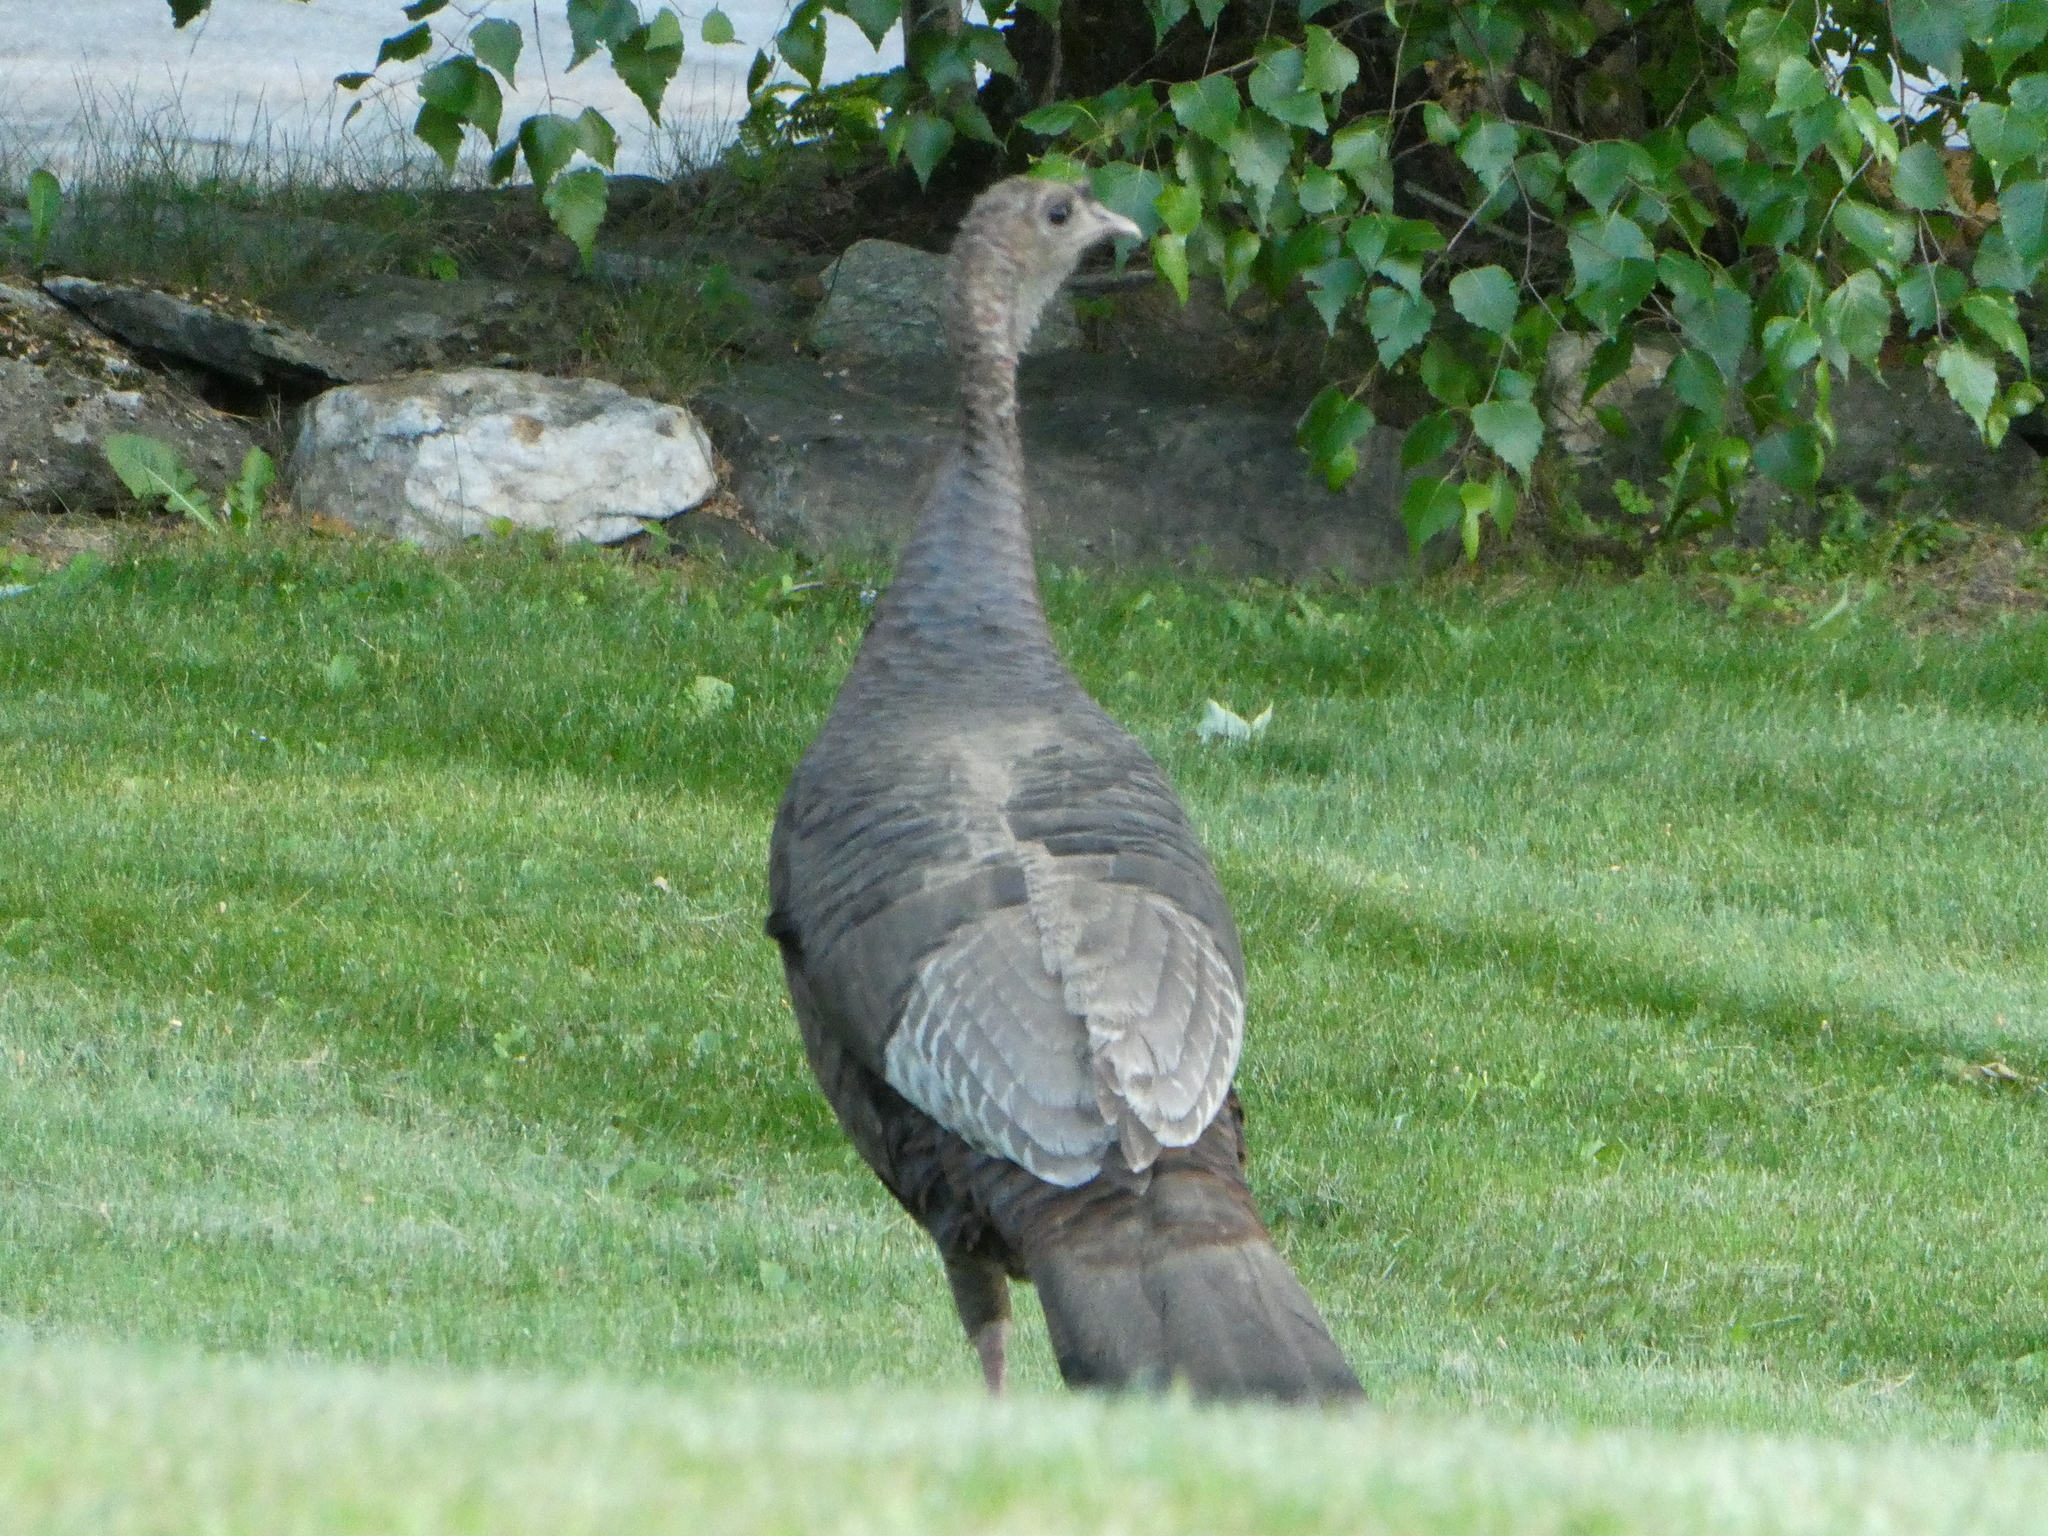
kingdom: Animalia
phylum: Chordata
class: Aves
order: Galliformes
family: Phasianidae
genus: Meleagris
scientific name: Meleagris gallopavo
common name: Wild turkey
